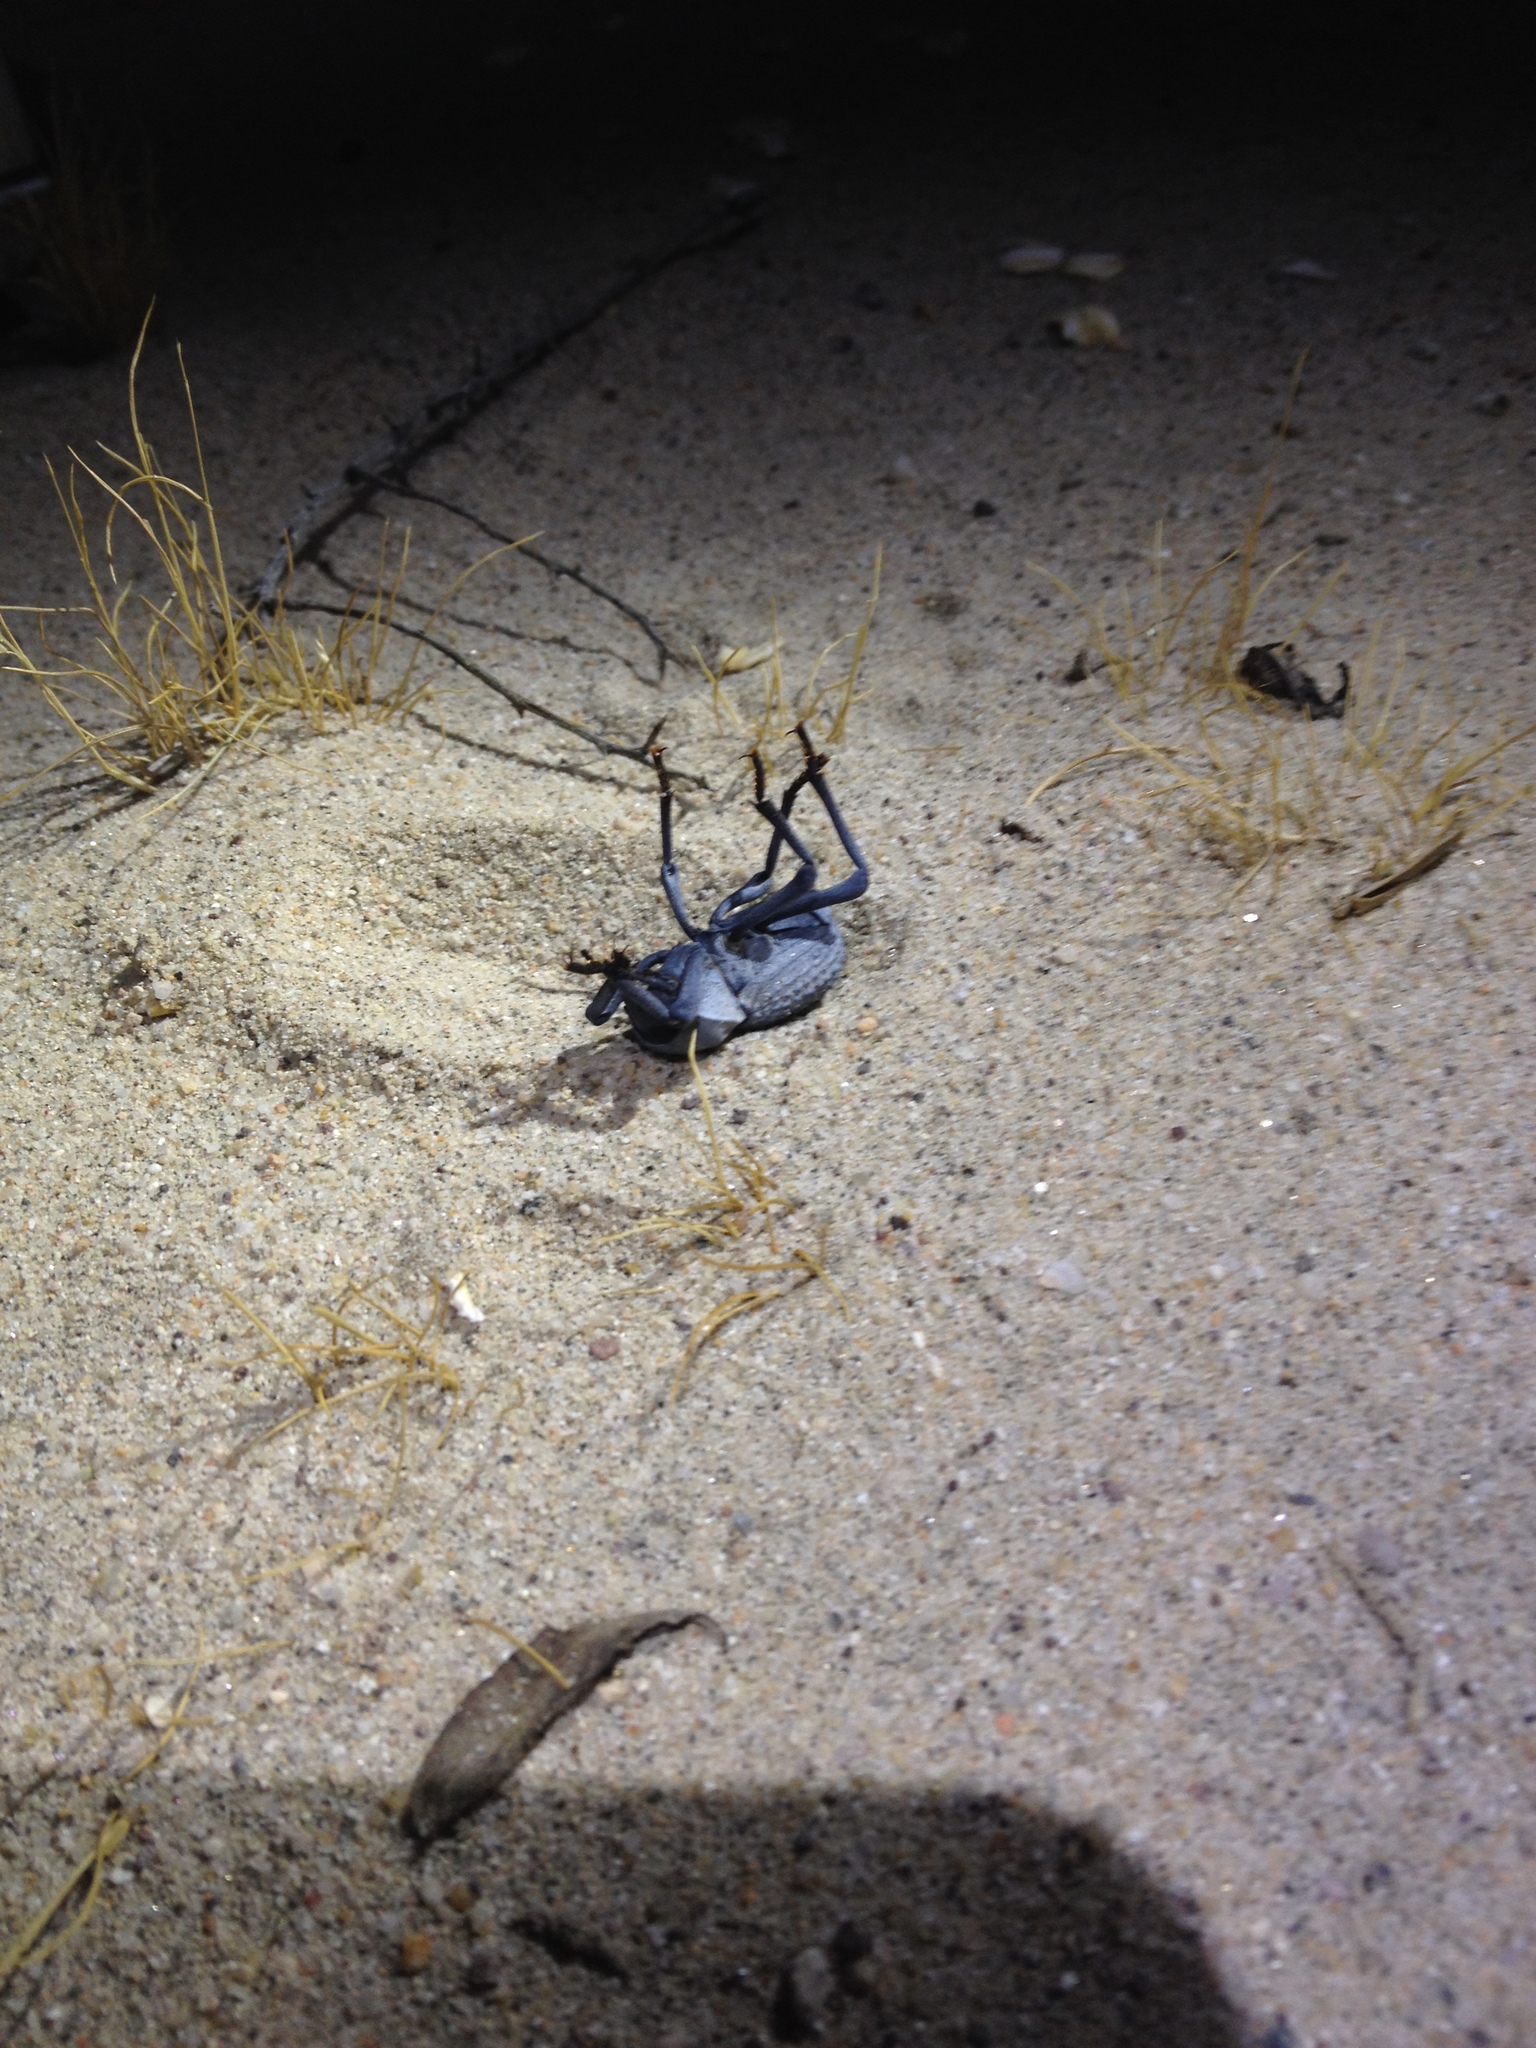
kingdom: Animalia
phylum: Arthropoda
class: Insecta
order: Coleoptera
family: Tenebrionidae
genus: Asbolus
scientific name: Asbolus verrucosus
